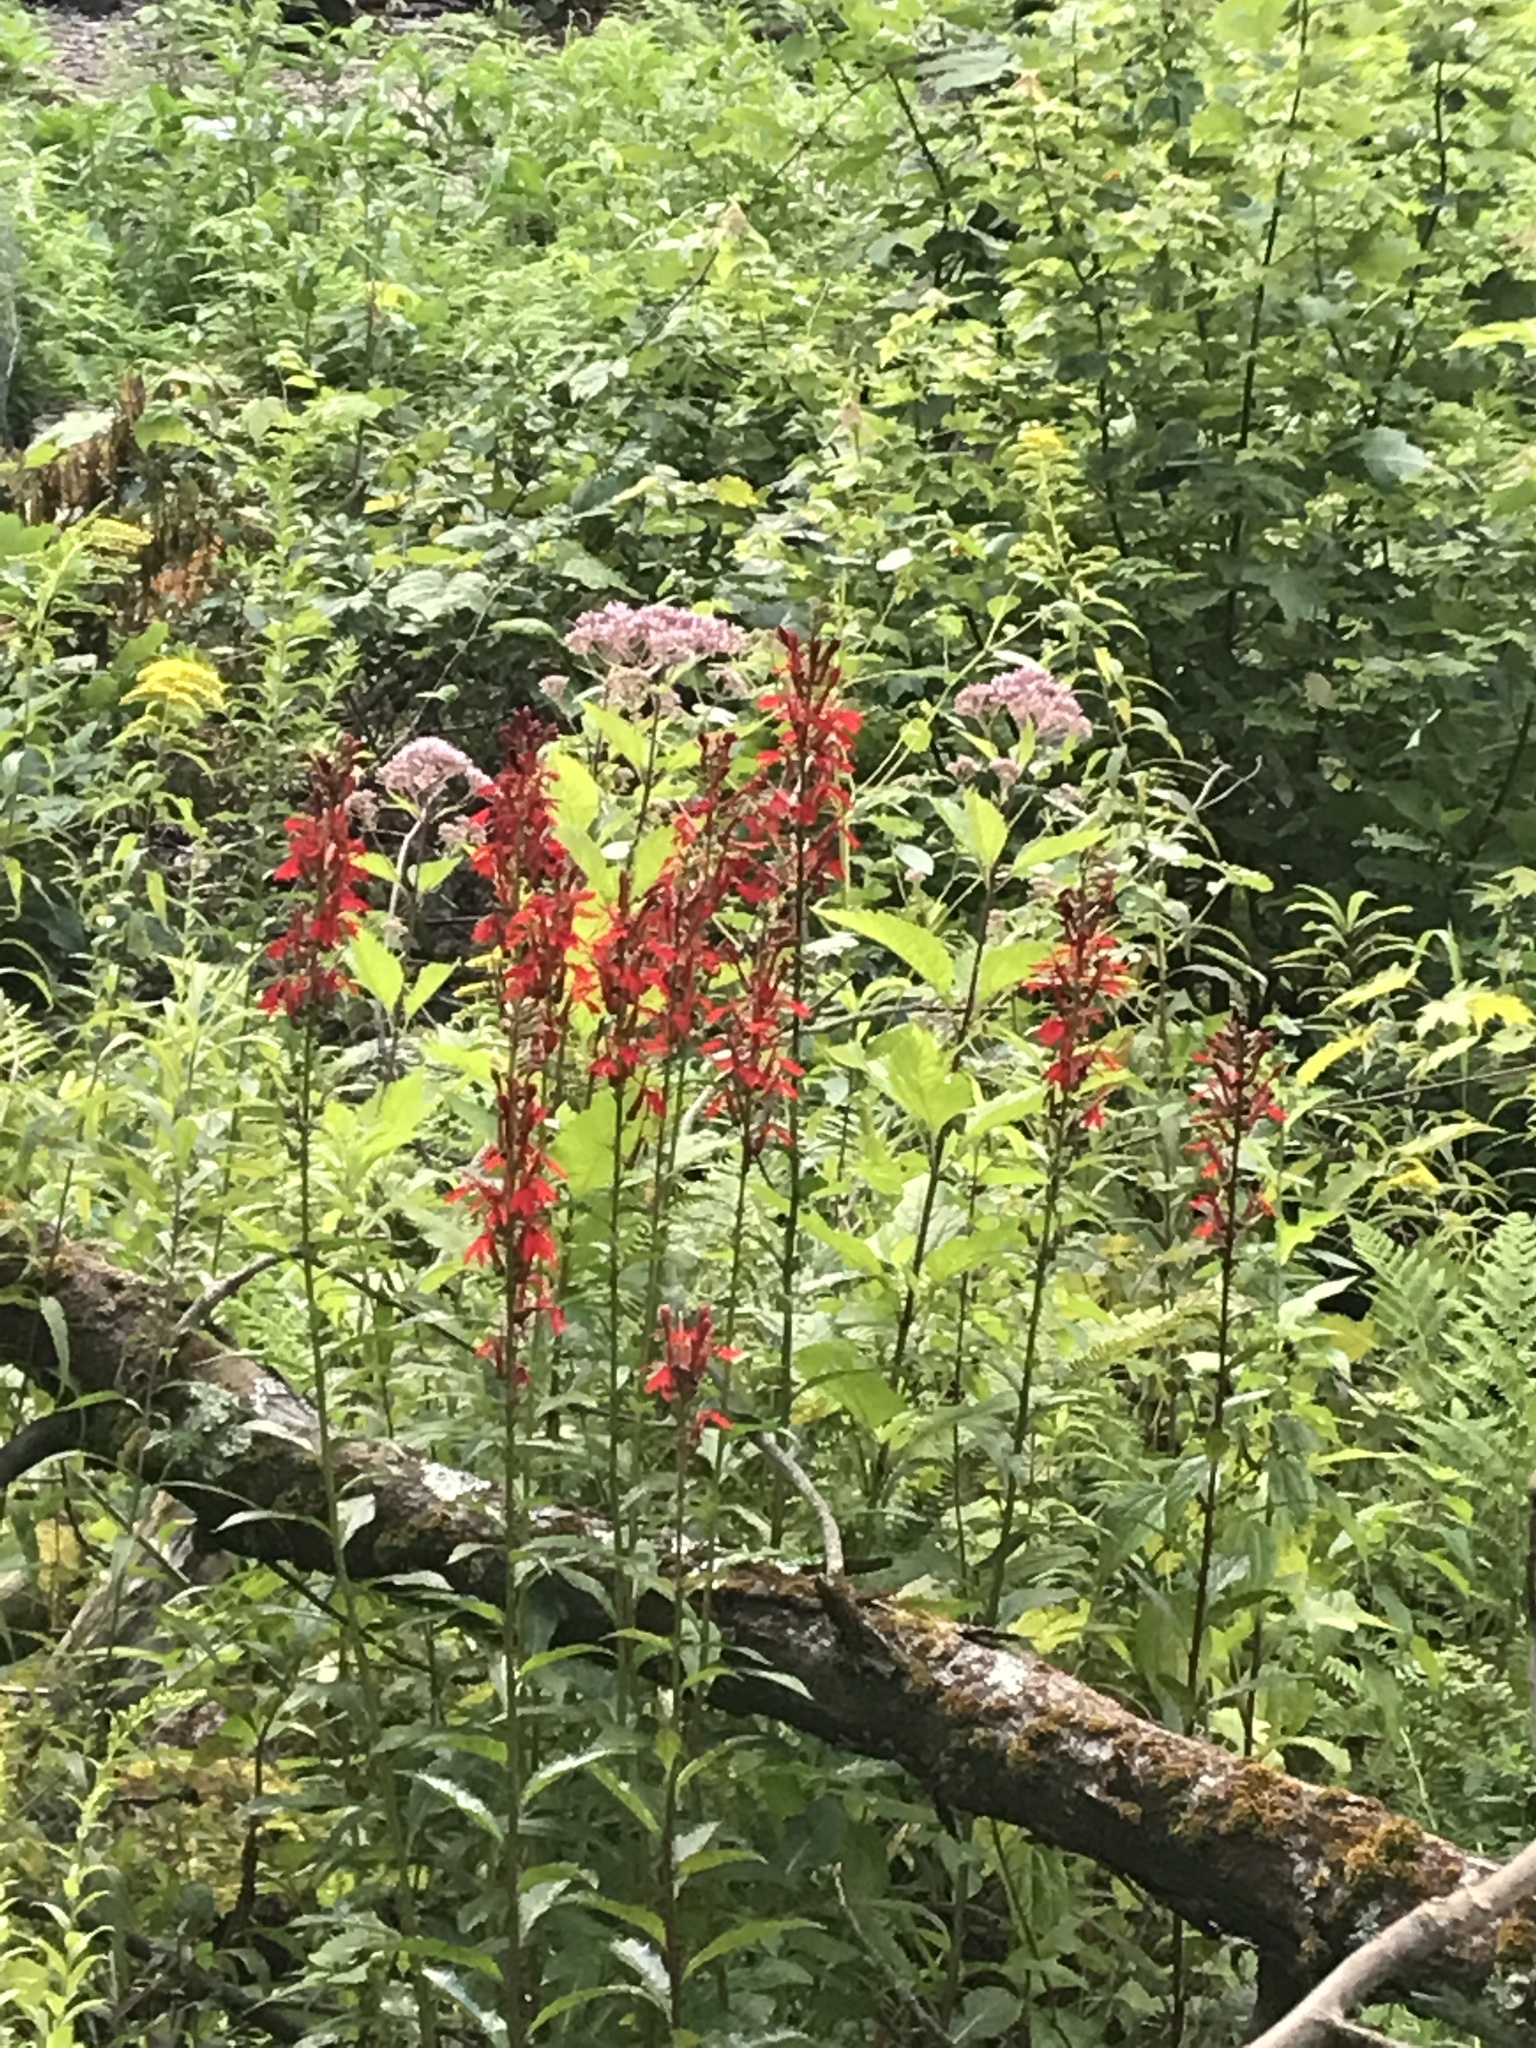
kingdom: Plantae
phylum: Tracheophyta
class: Magnoliopsida
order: Asterales
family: Campanulaceae
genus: Lobelia
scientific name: Lobelia cardinalis
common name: Cardinal flower
